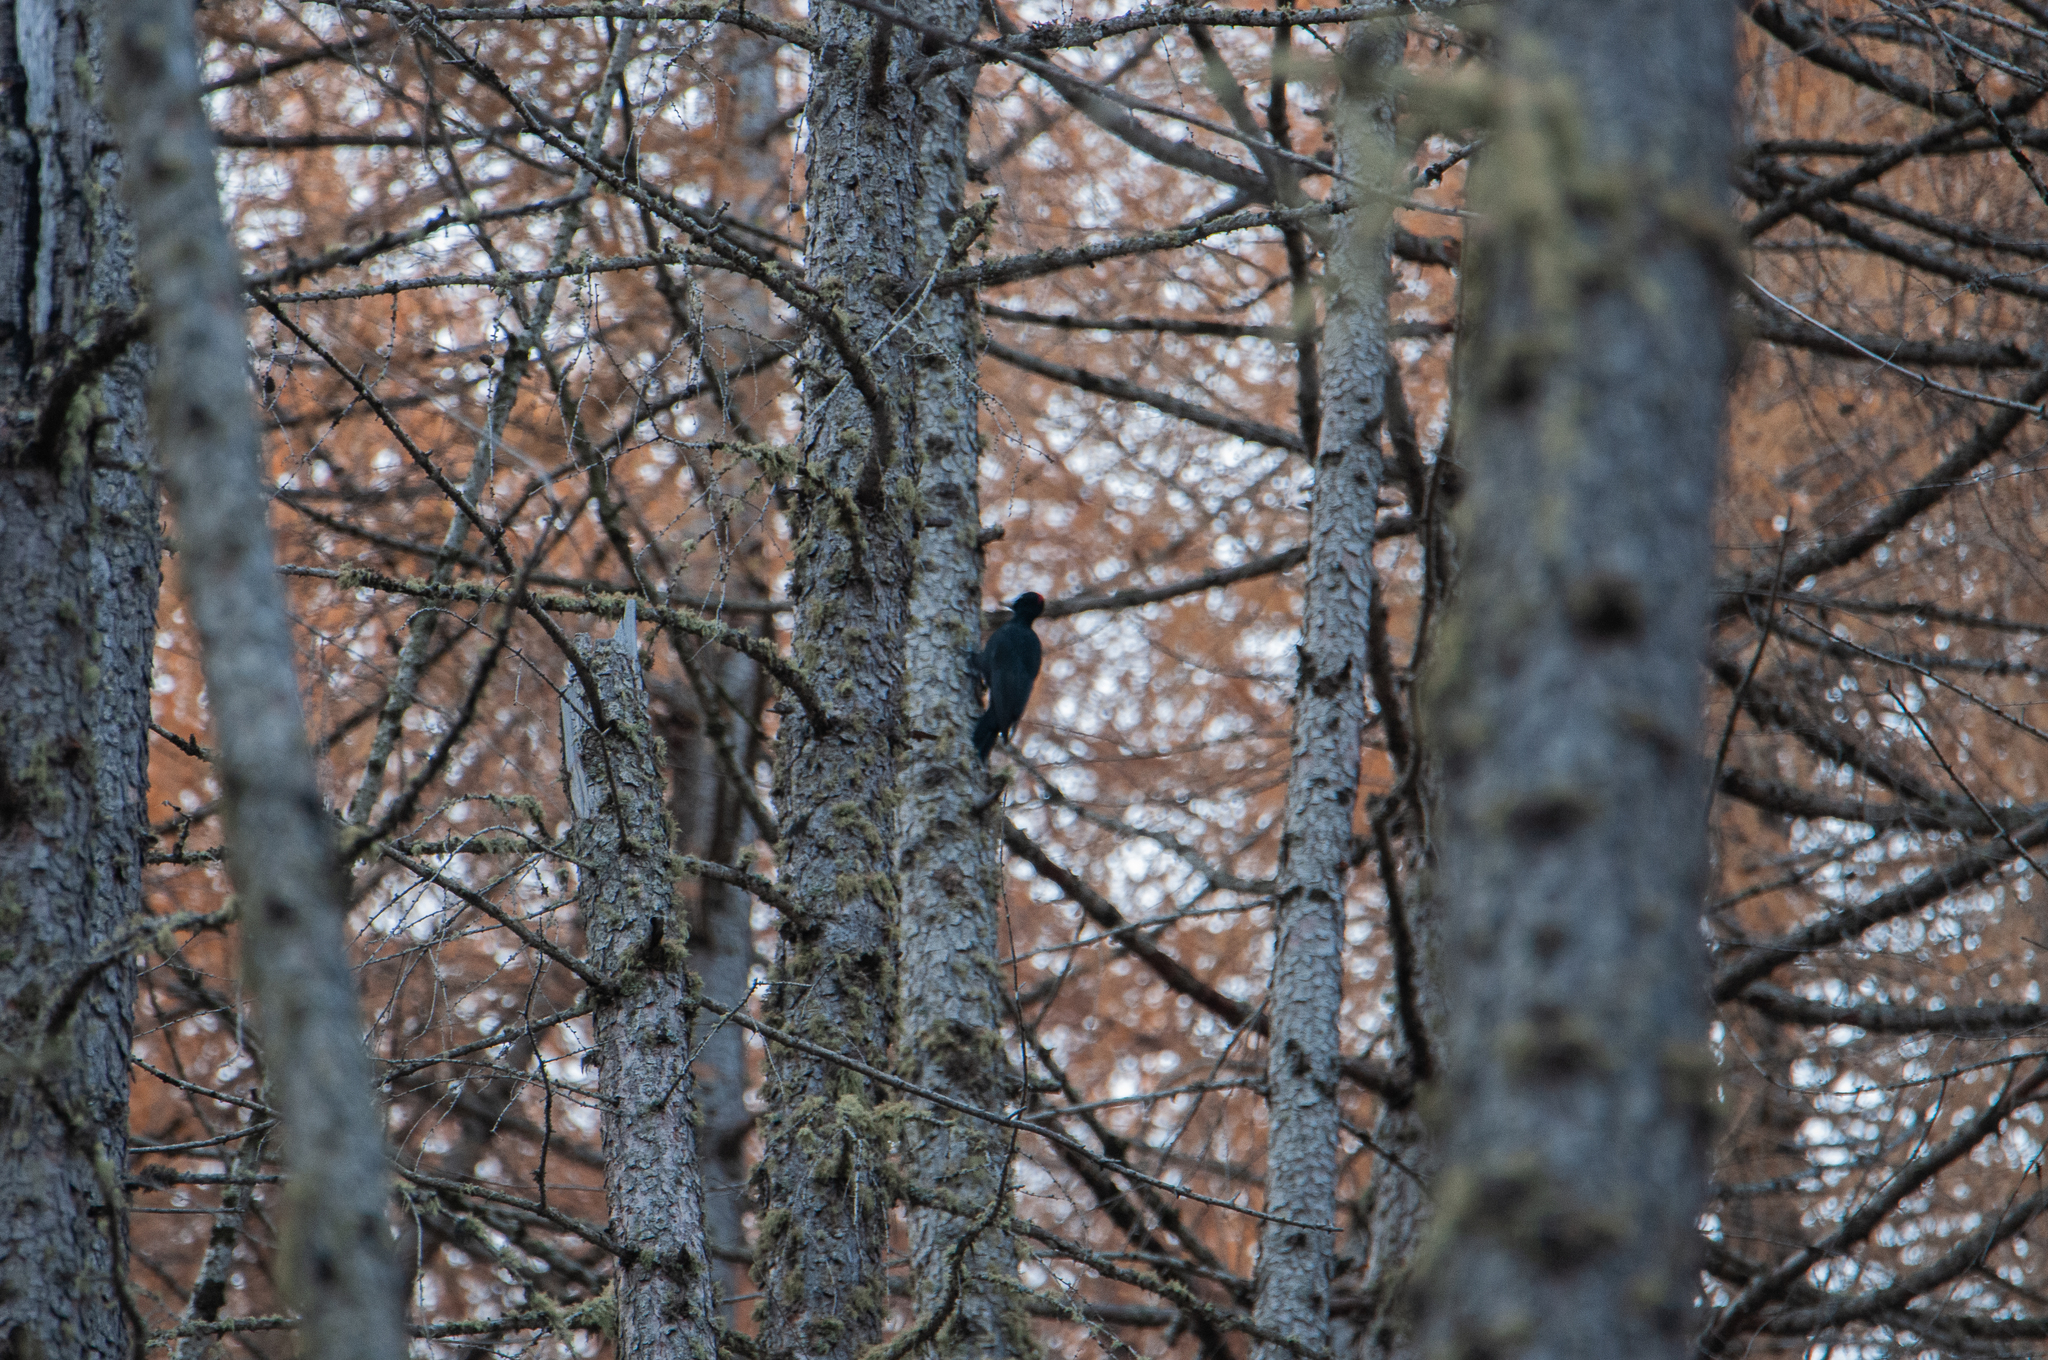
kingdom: Animalia
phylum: Chordata
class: Aves
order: Piciformes
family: Picidae
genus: Dryocopus
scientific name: Dryocopus martius
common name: Black woodpecker
